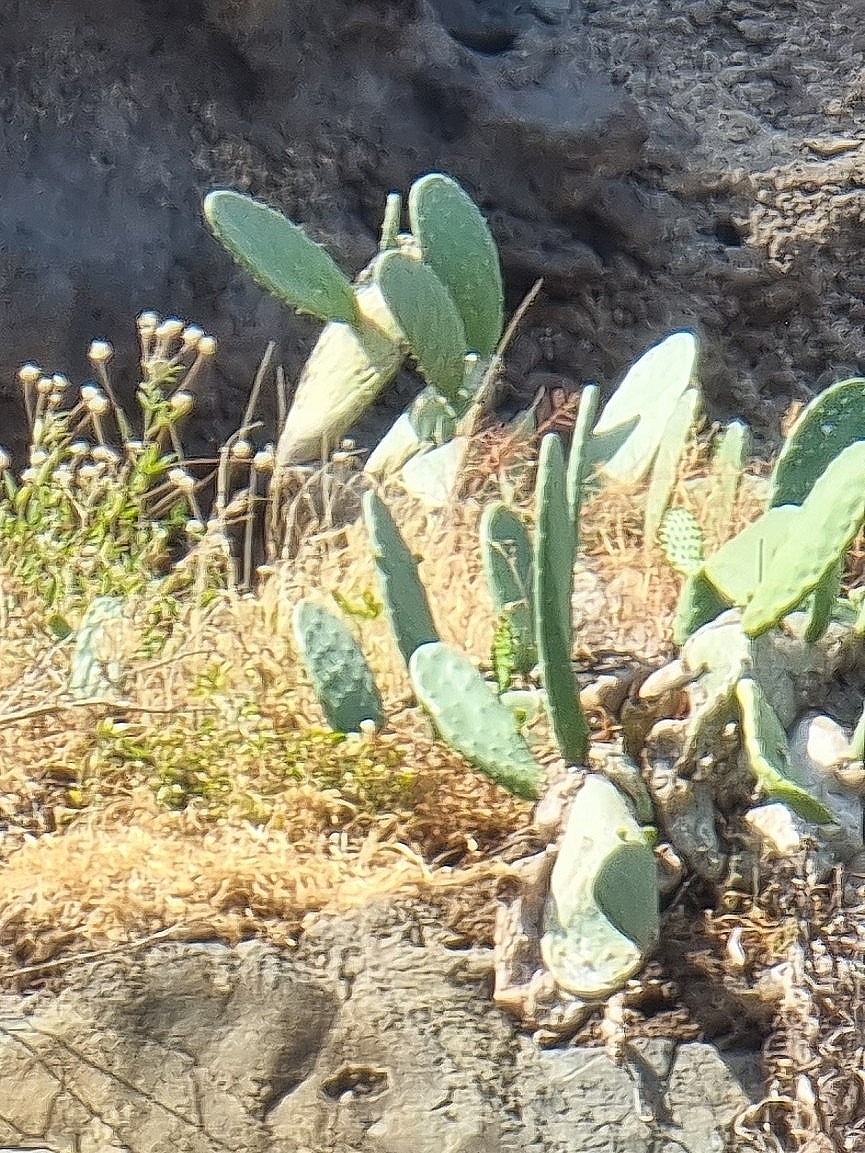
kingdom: Plantae
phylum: Tracheophyta
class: Magnoliopsida
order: Caryophyllales
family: Cactaceae
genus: Opuntia
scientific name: Opuntia ficus-indica
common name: Barbary fig
